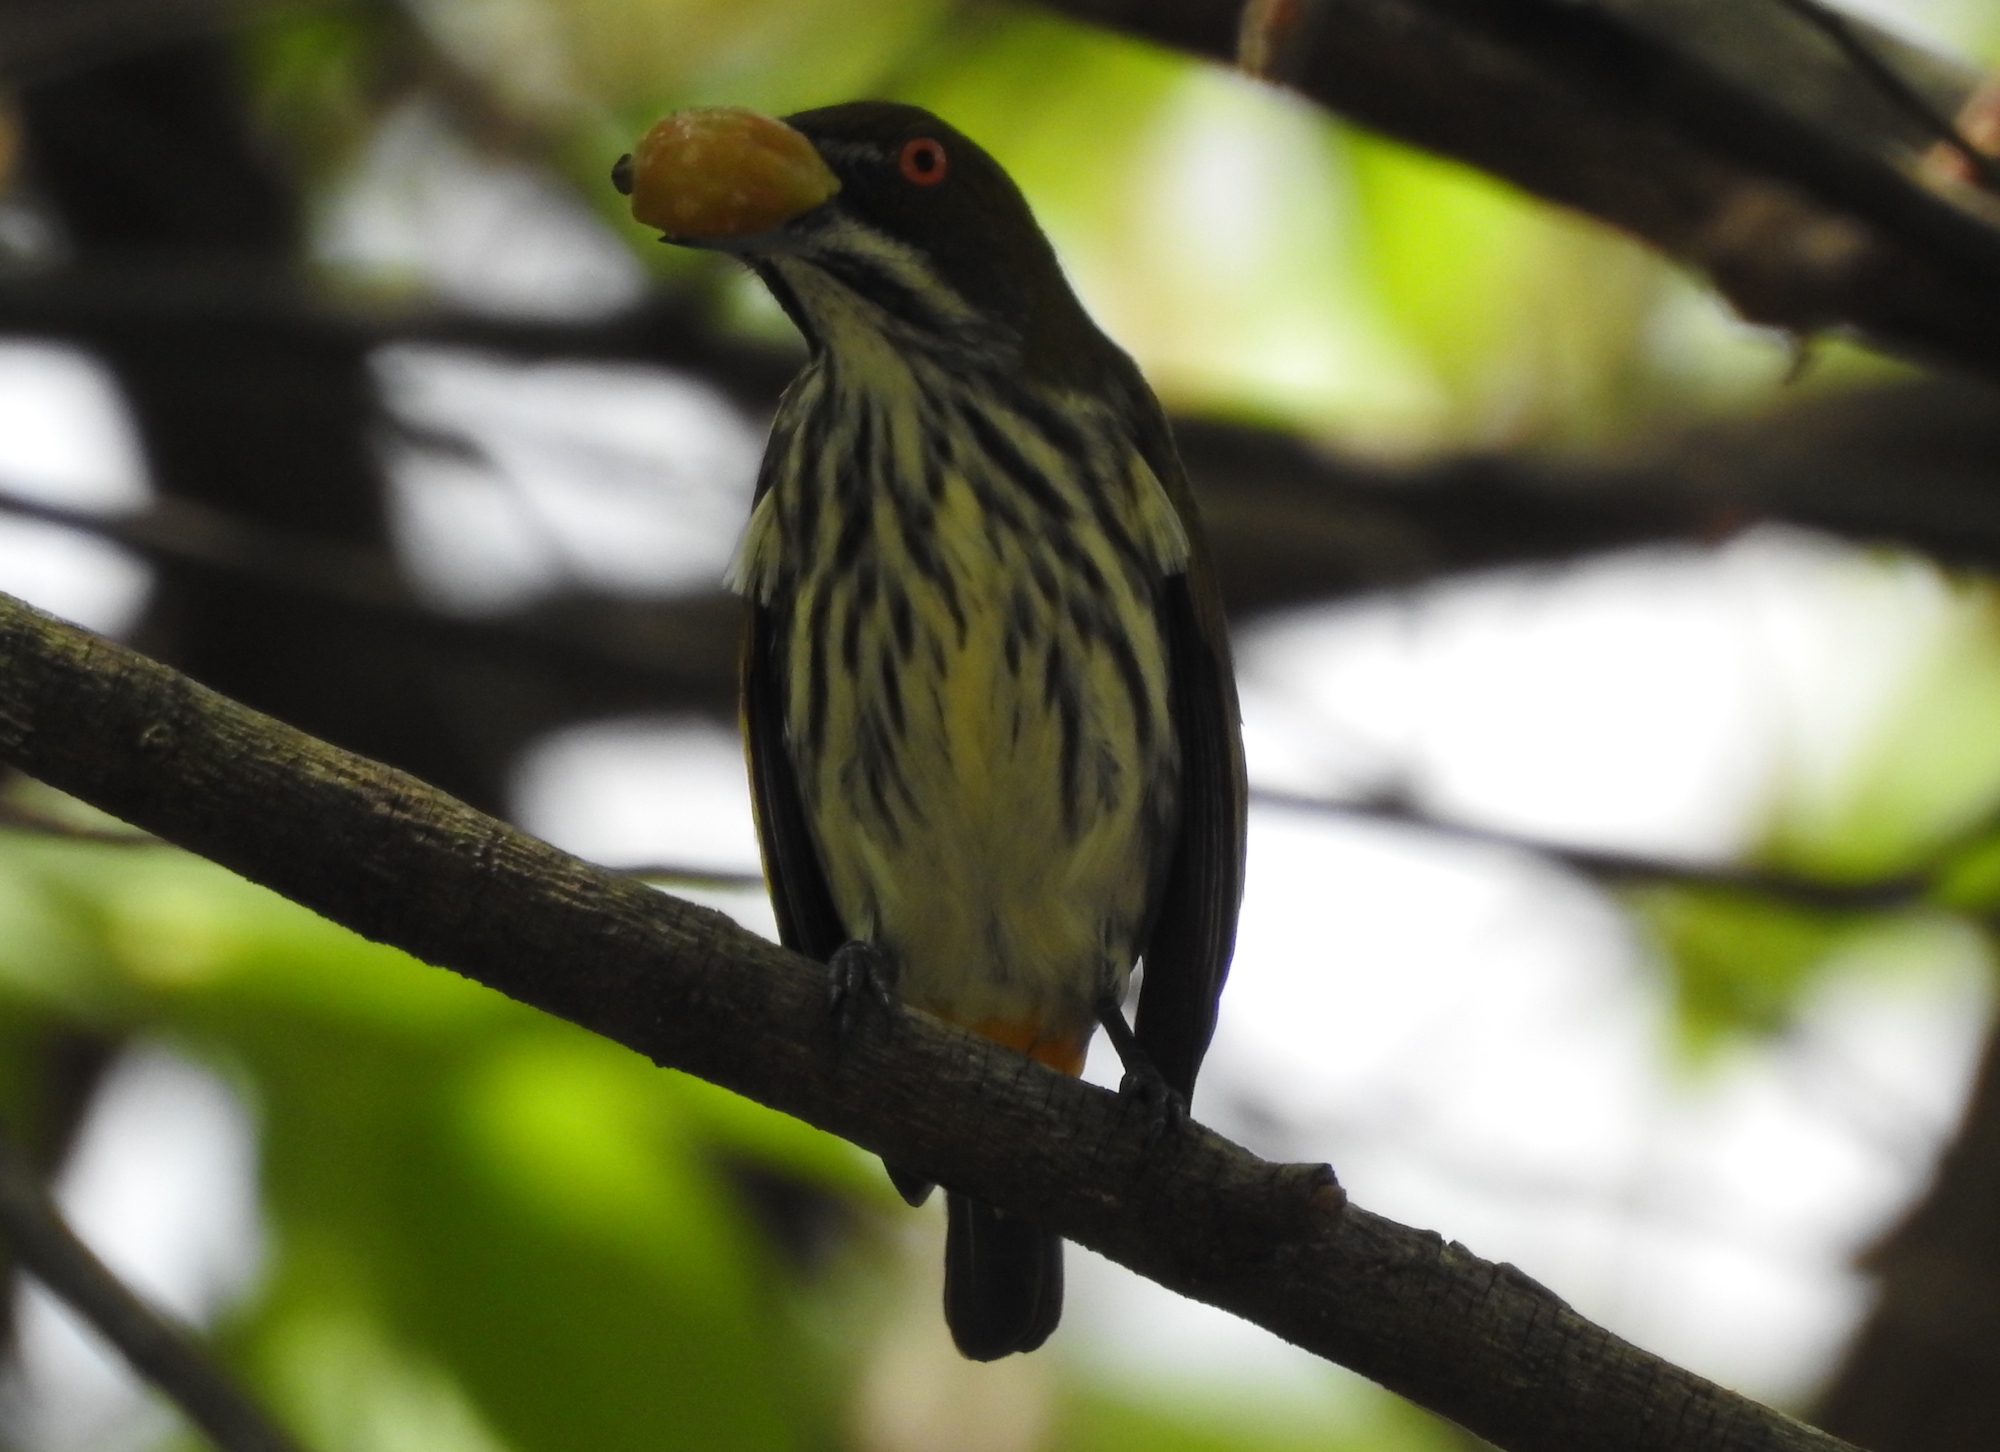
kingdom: Animalia
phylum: Chordata
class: Aves
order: Passeriformes
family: Dicaeidae
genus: Dicaeum
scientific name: Dicaeum chrysorrheum
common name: Yellow-vented flowerpecker
